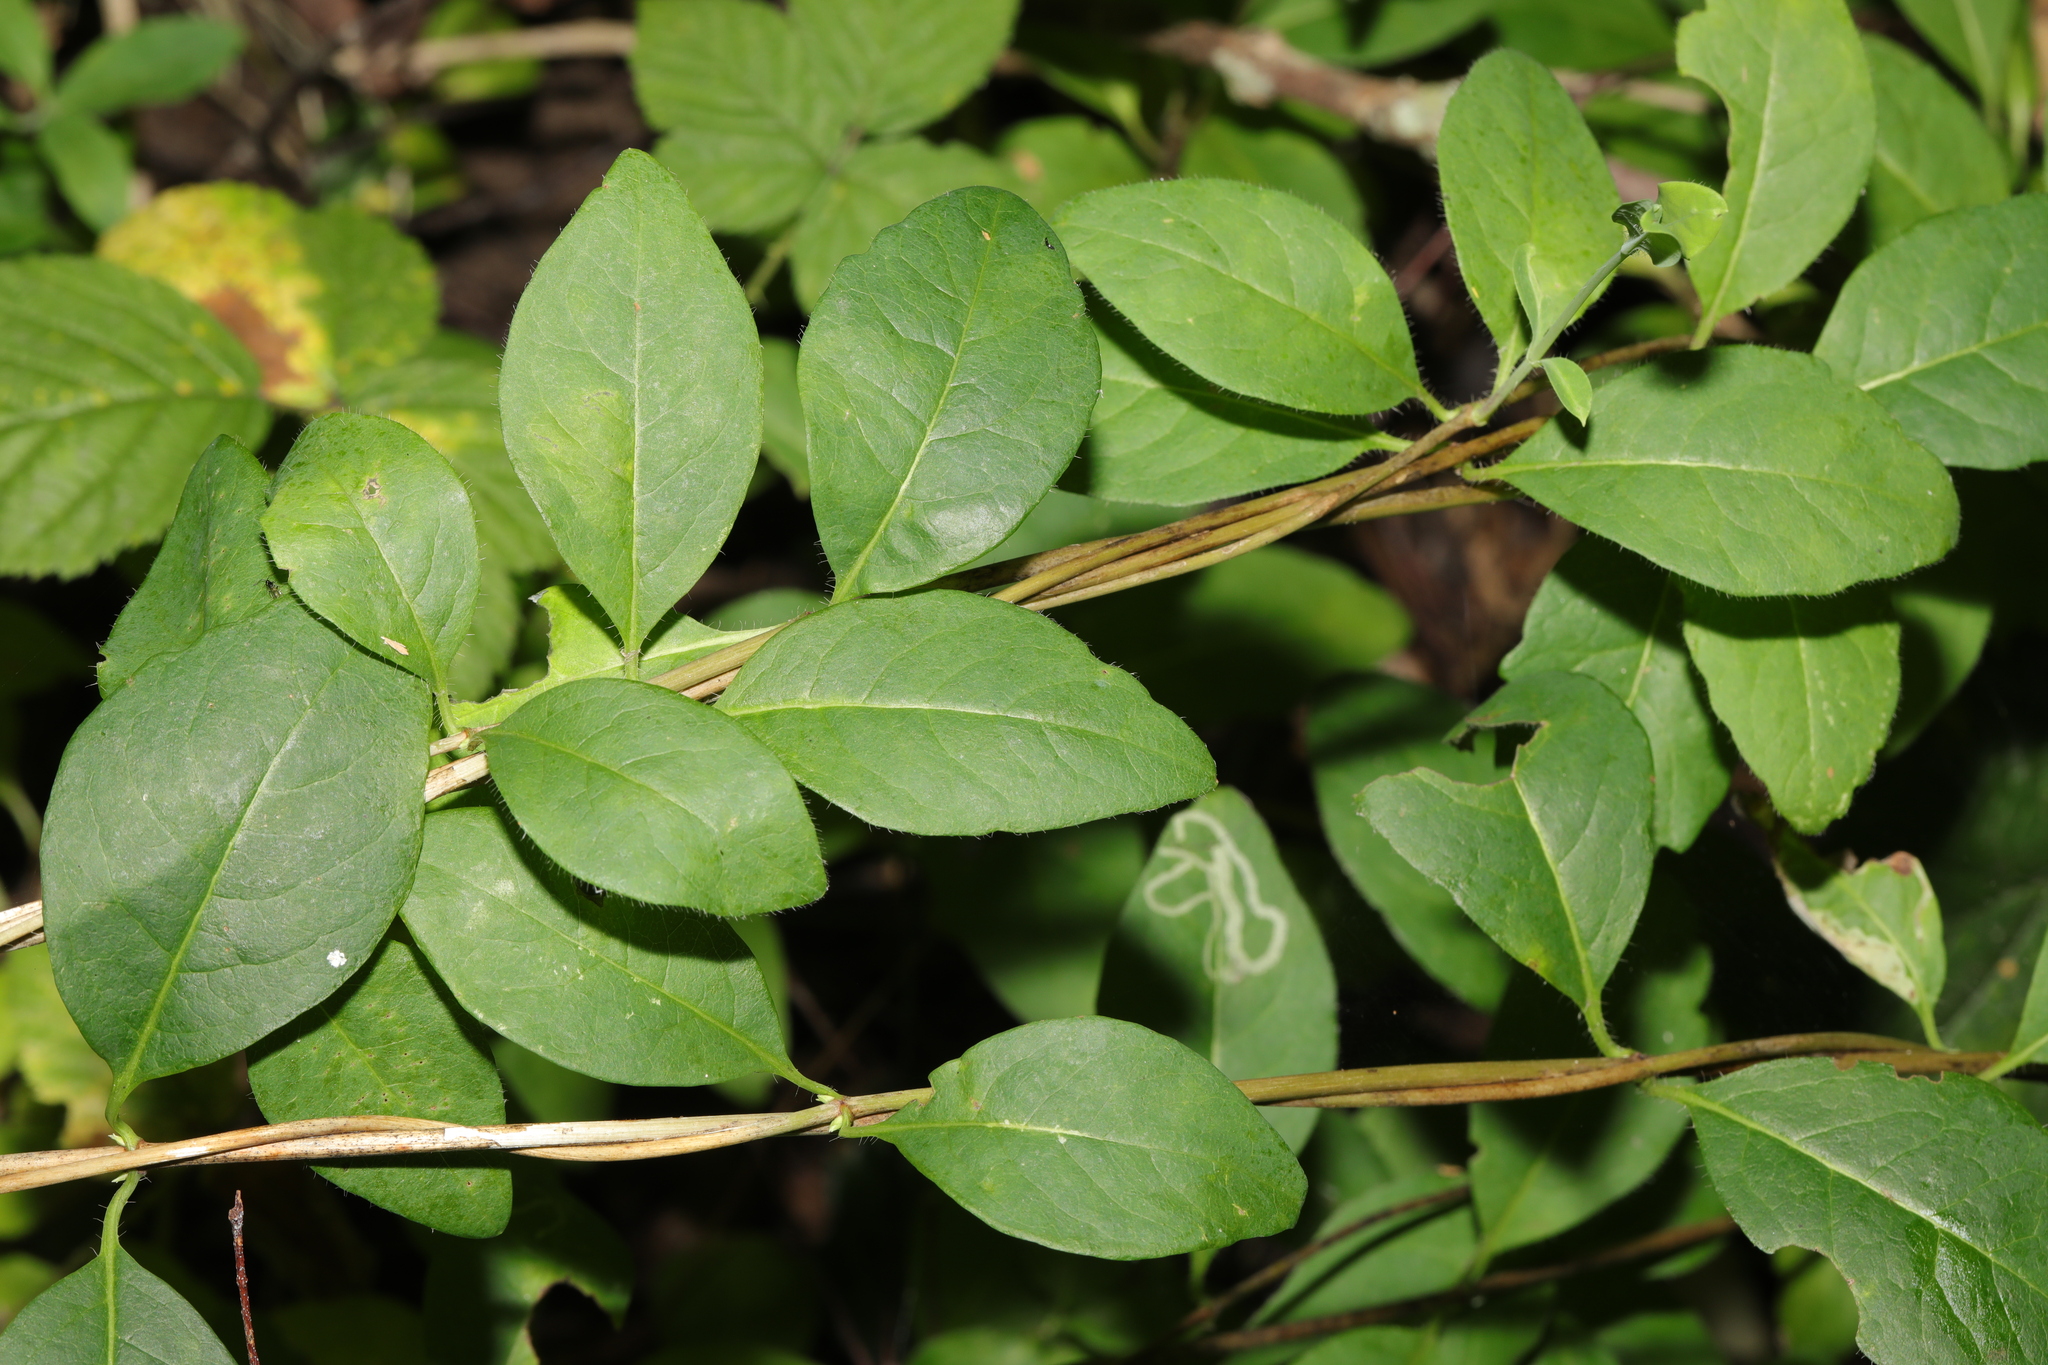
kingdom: Plantae
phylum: Tracheophyta
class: Magnoliopsida
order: Dipsacales
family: Caprifoliaceae
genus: Lonicera
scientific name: Lonicera periclymenum
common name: European honeysuckle
